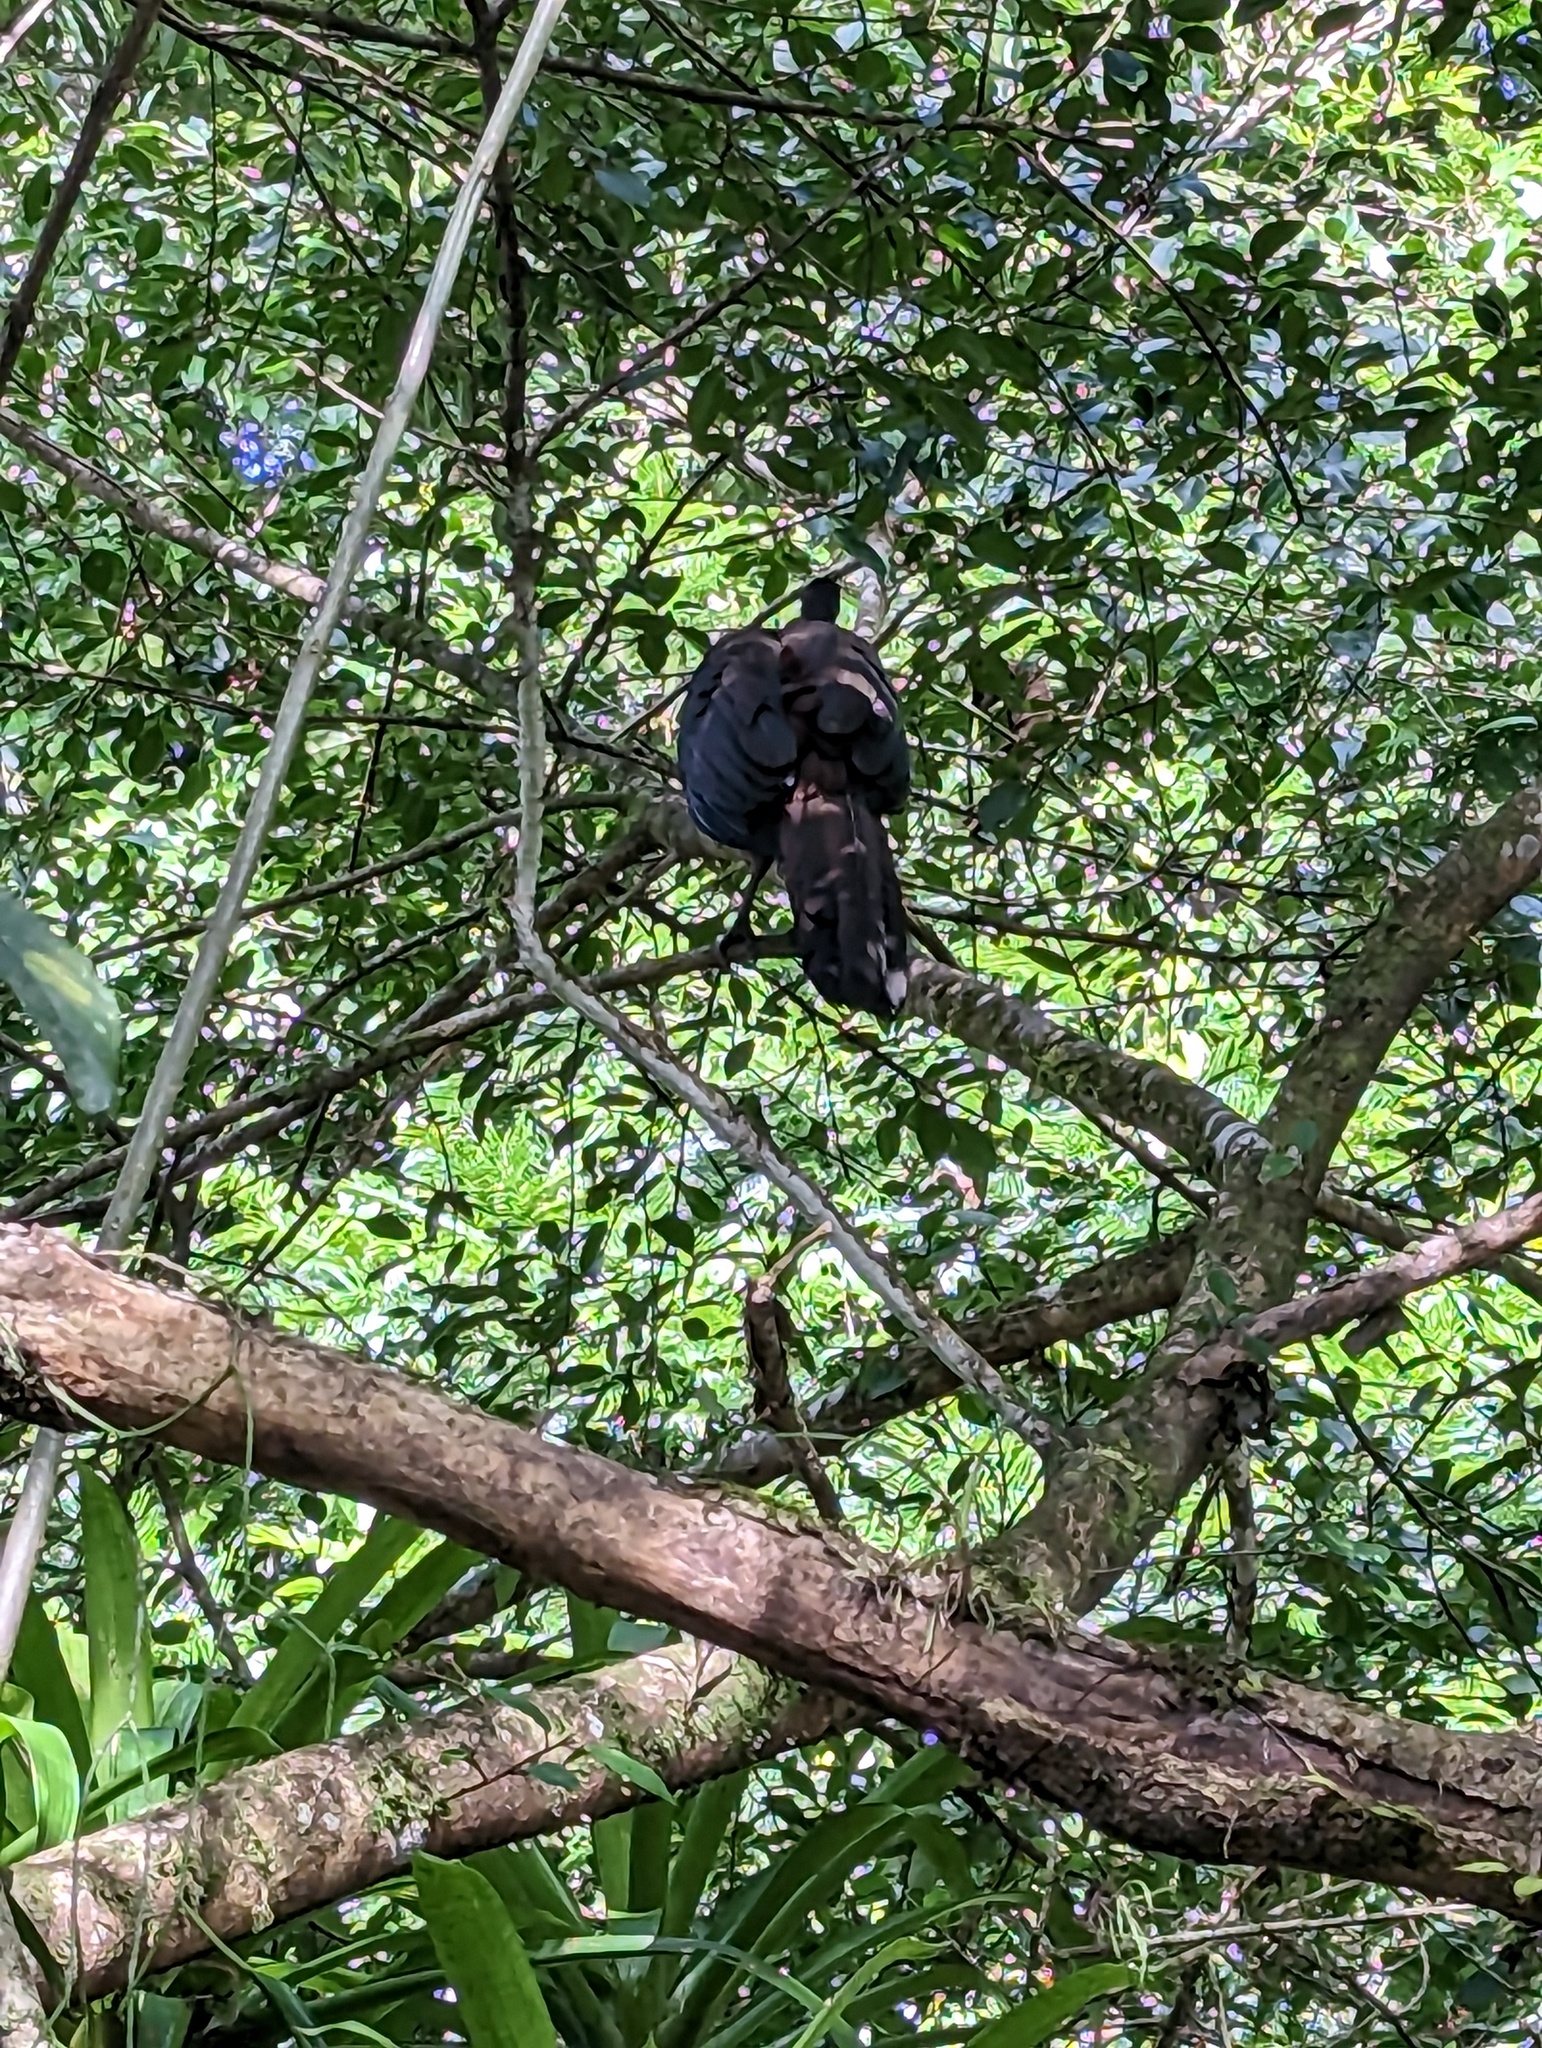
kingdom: Animalia
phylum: Chordata
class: Aves
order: Galliformes
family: Cracidae
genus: Penelope
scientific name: Penelope purpurascens
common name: Crested guan
